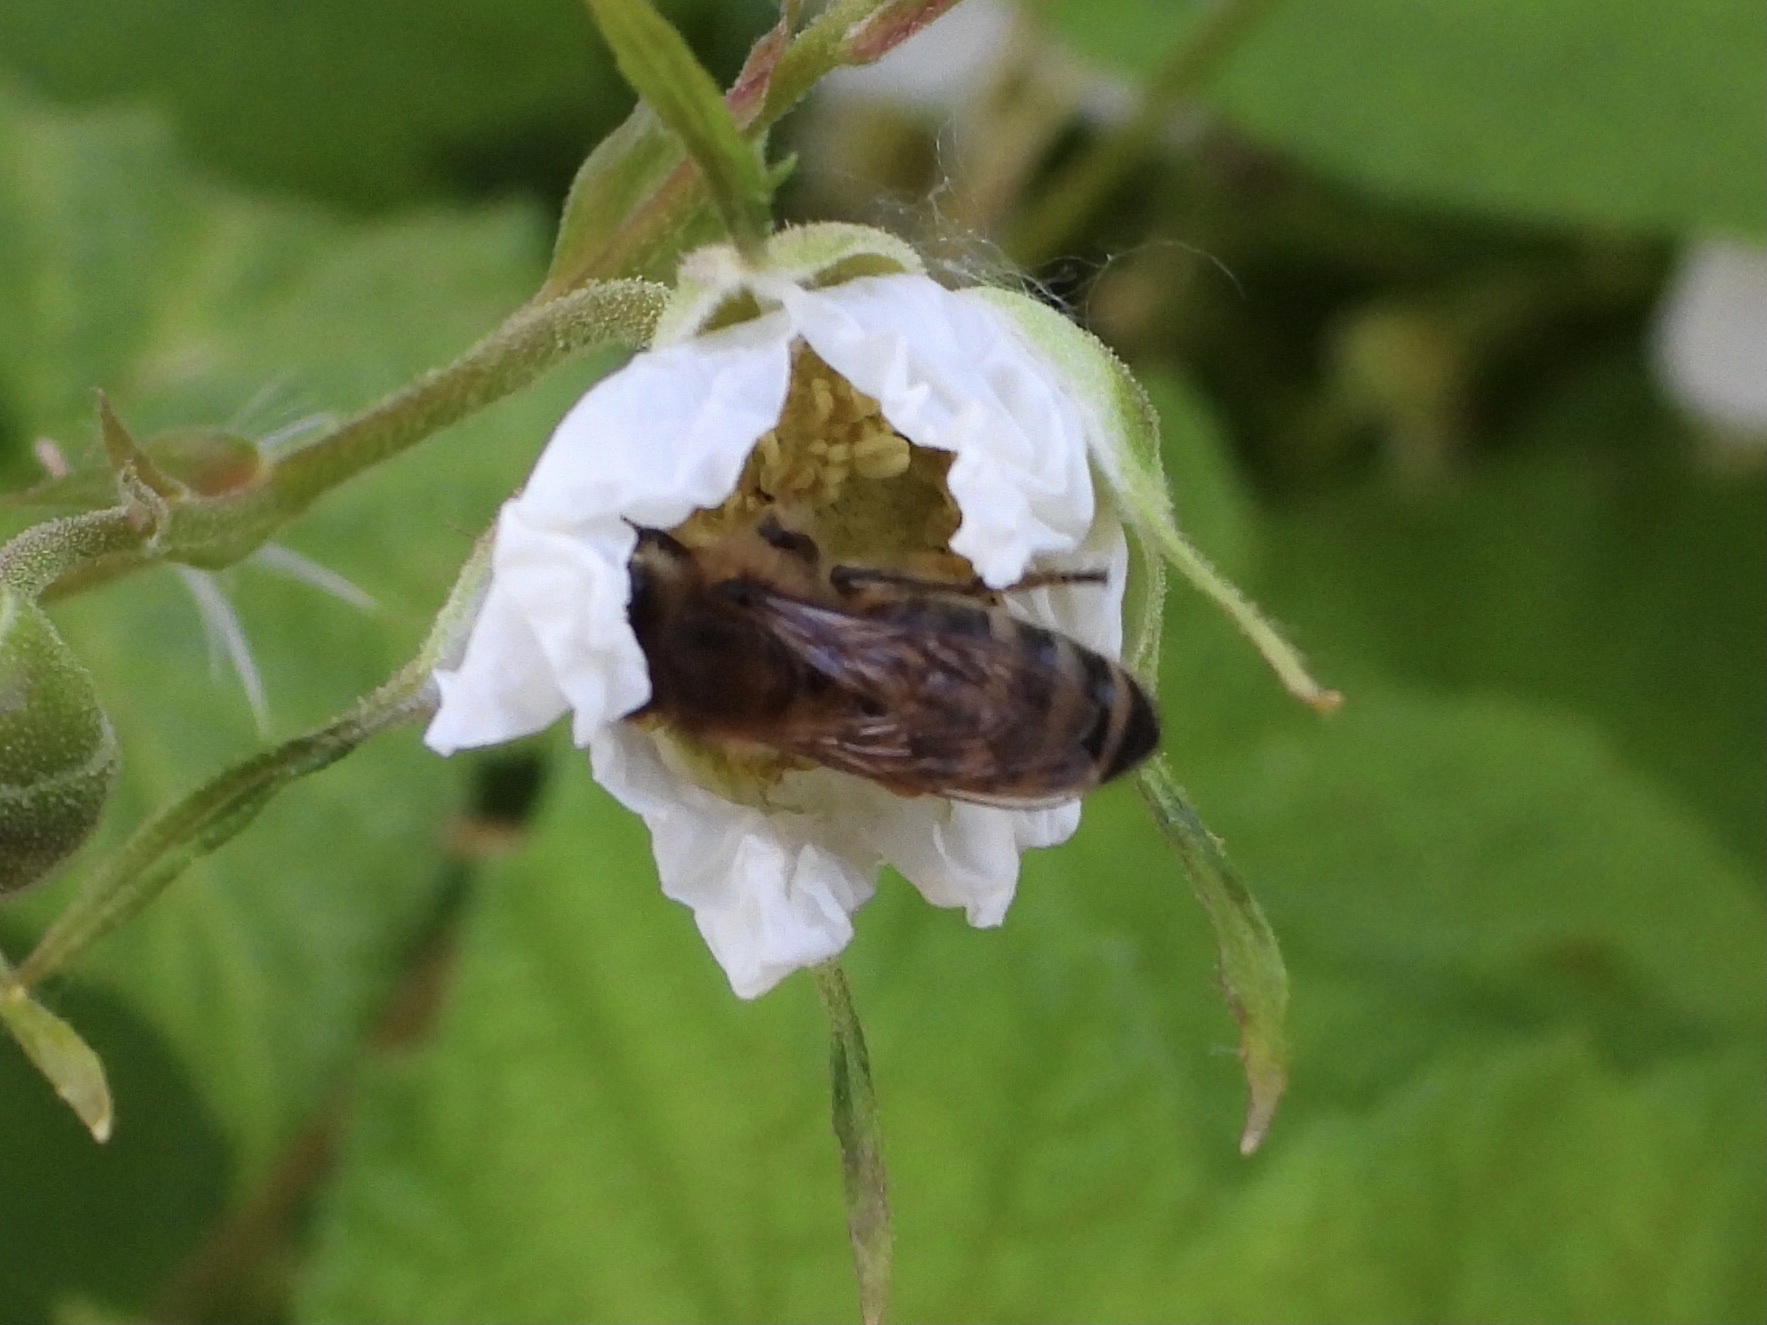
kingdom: Animalia
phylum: Arthropoda
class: Insecta
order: Hymenoptera
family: Apidae
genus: Apis
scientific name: Apis mellifera
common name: Honey bee
